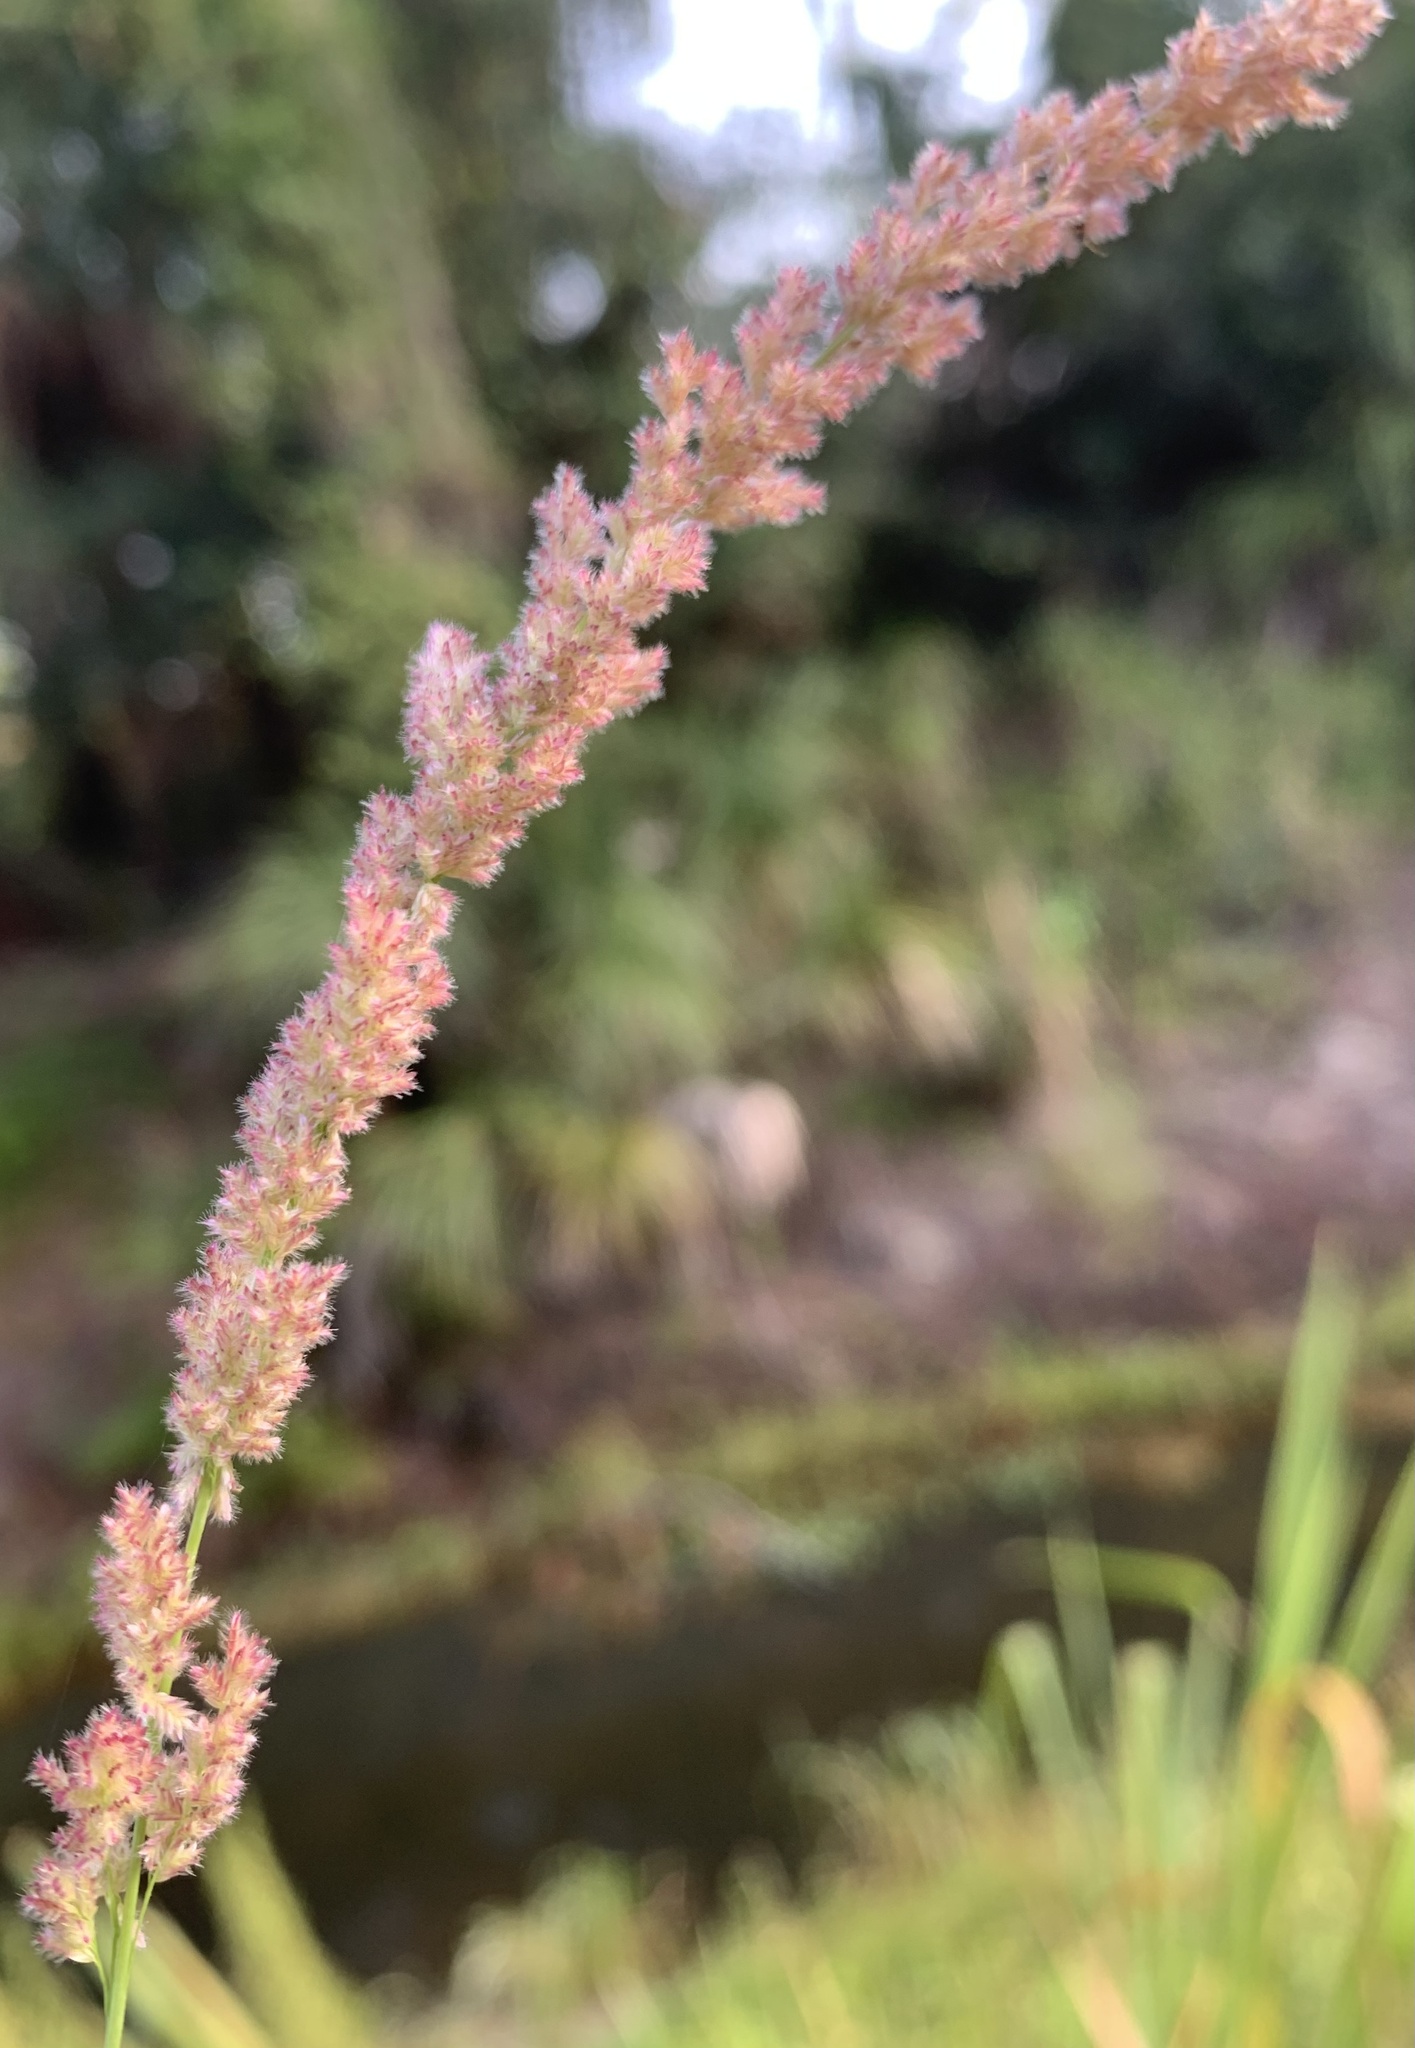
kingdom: Plantae
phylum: Tracheophyta
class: Liliopsida
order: Poales
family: Poaceae
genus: Eragrostis
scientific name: Eragrostis ciliaris
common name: Gophertail lovegrass
